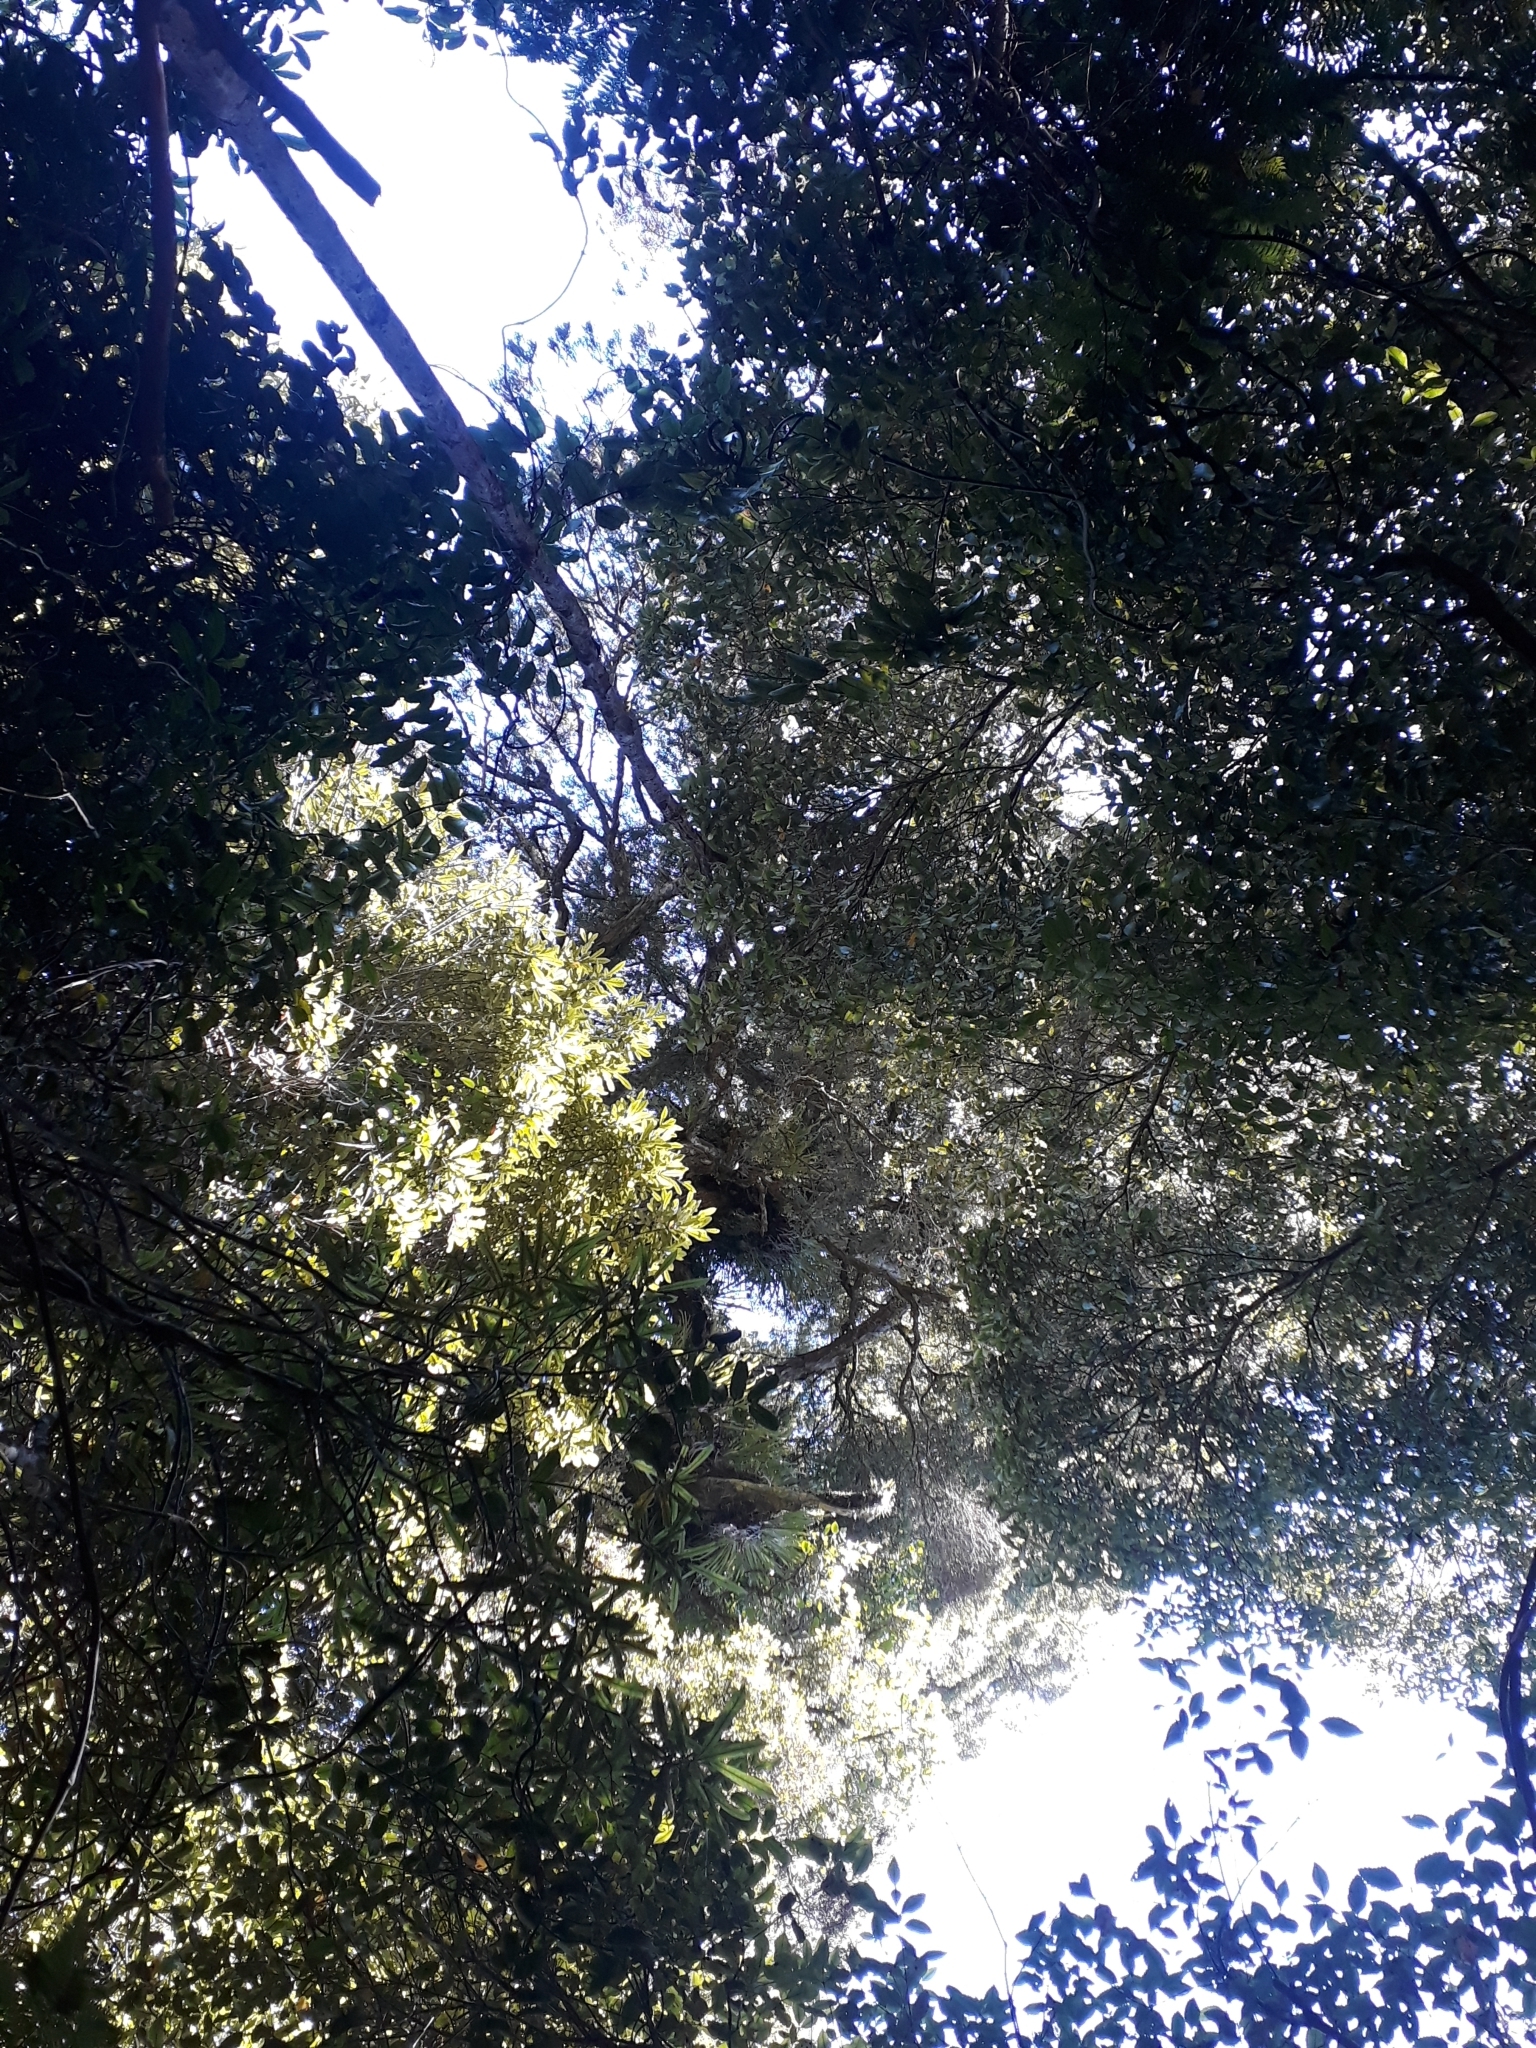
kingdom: Plantae
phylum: Tracheophyta
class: Pinopsida
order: Pinales
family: Podocarpaceae
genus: Dacrydium
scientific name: Dacrydium cupressinum
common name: Red pine
